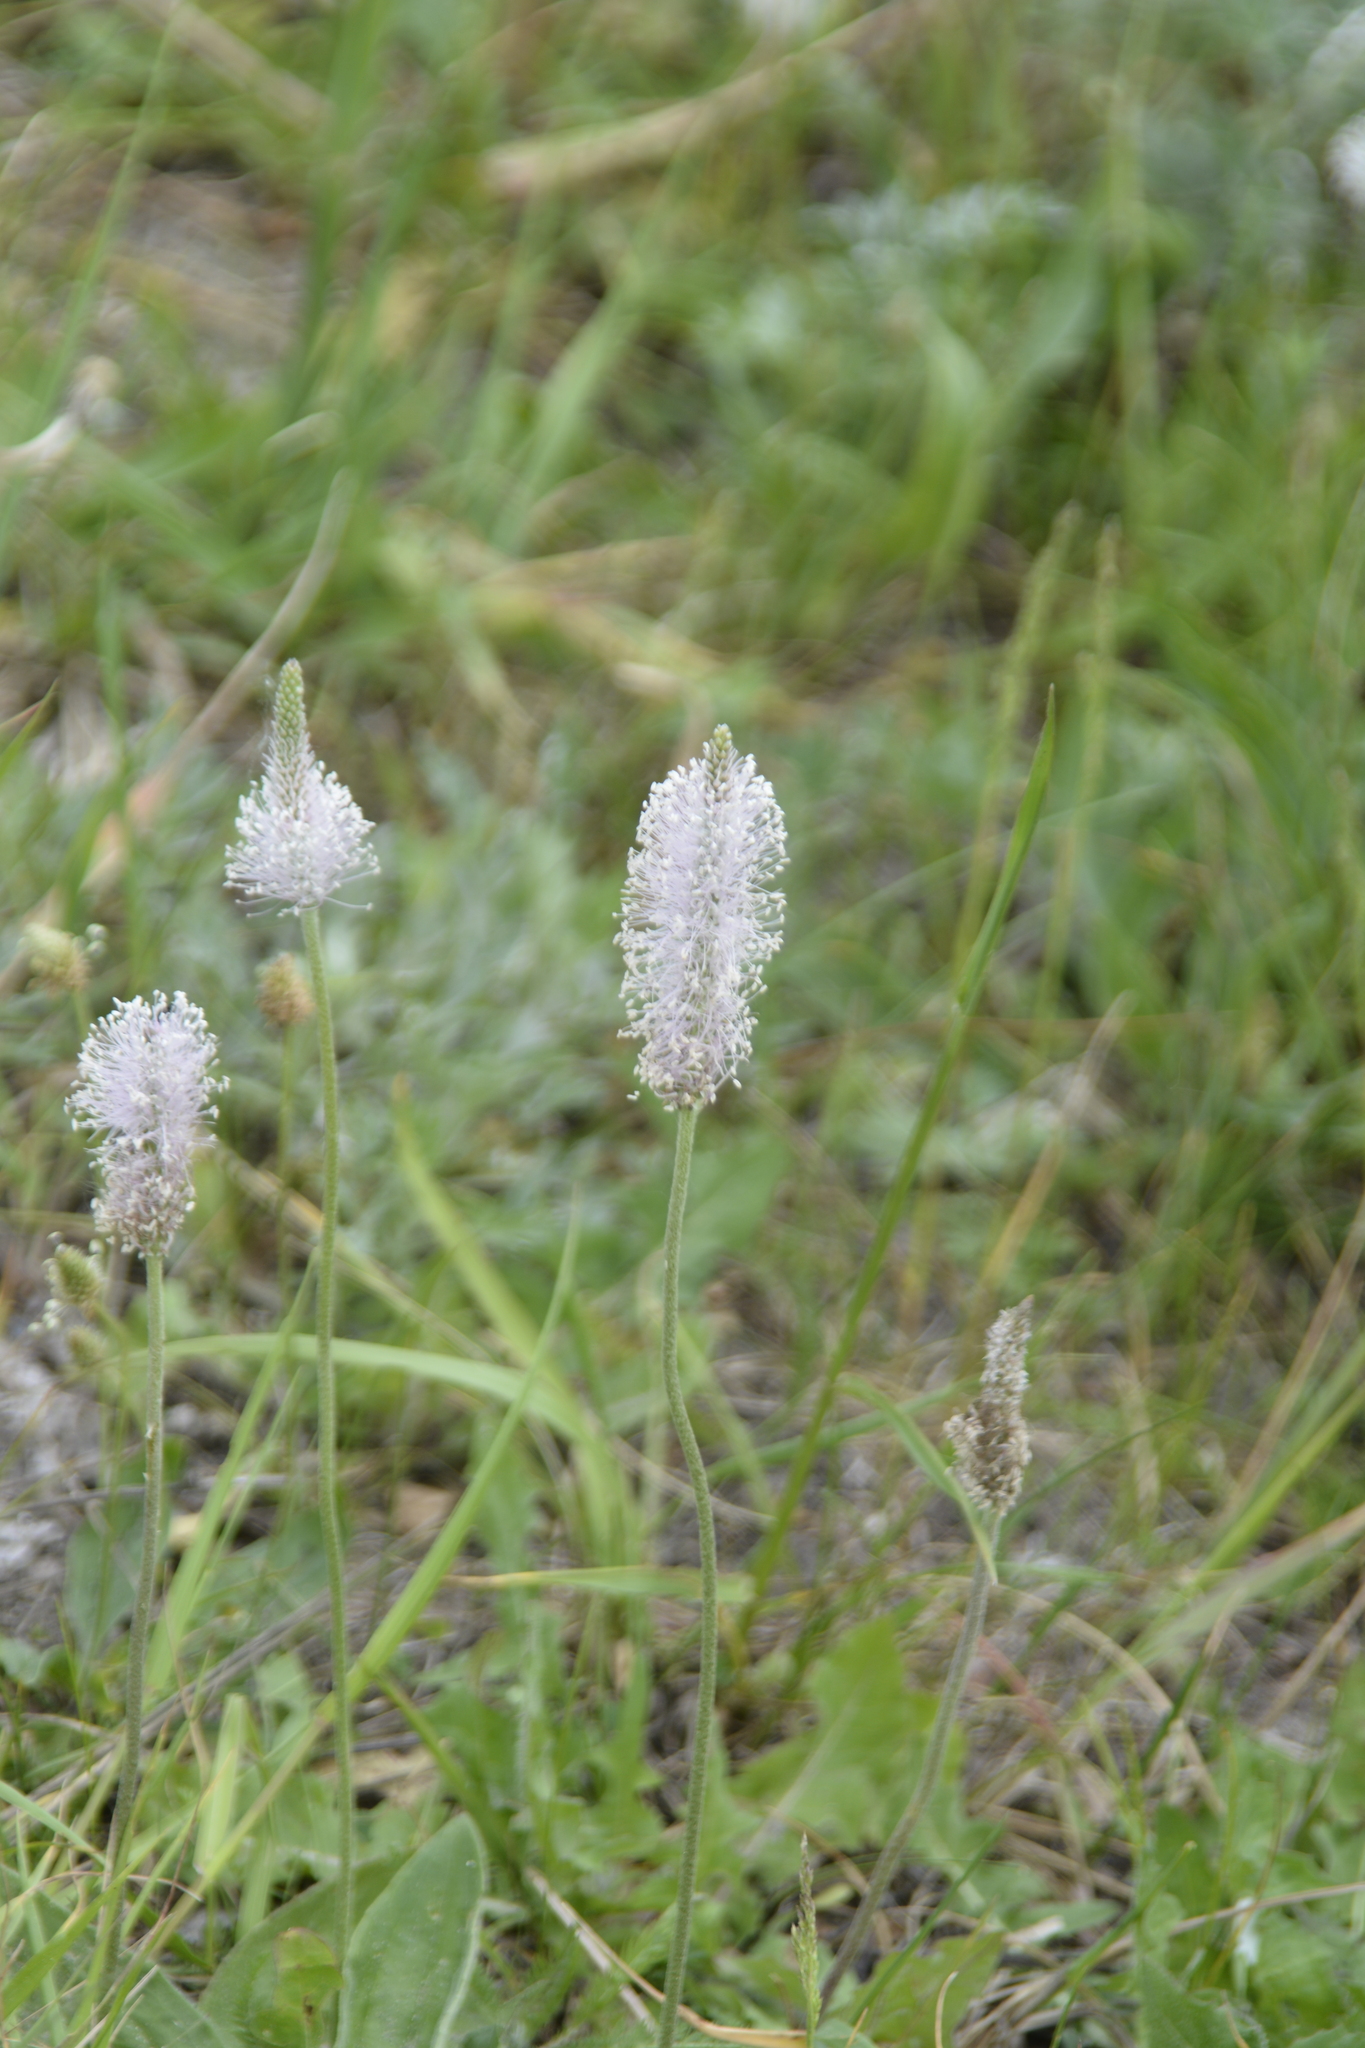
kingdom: Plantae
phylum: Tracheophyta
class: Magnoliopsida
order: Lamiales
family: Plantaginaceae
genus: Plantago
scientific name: Plantago media
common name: Hoary plantain
